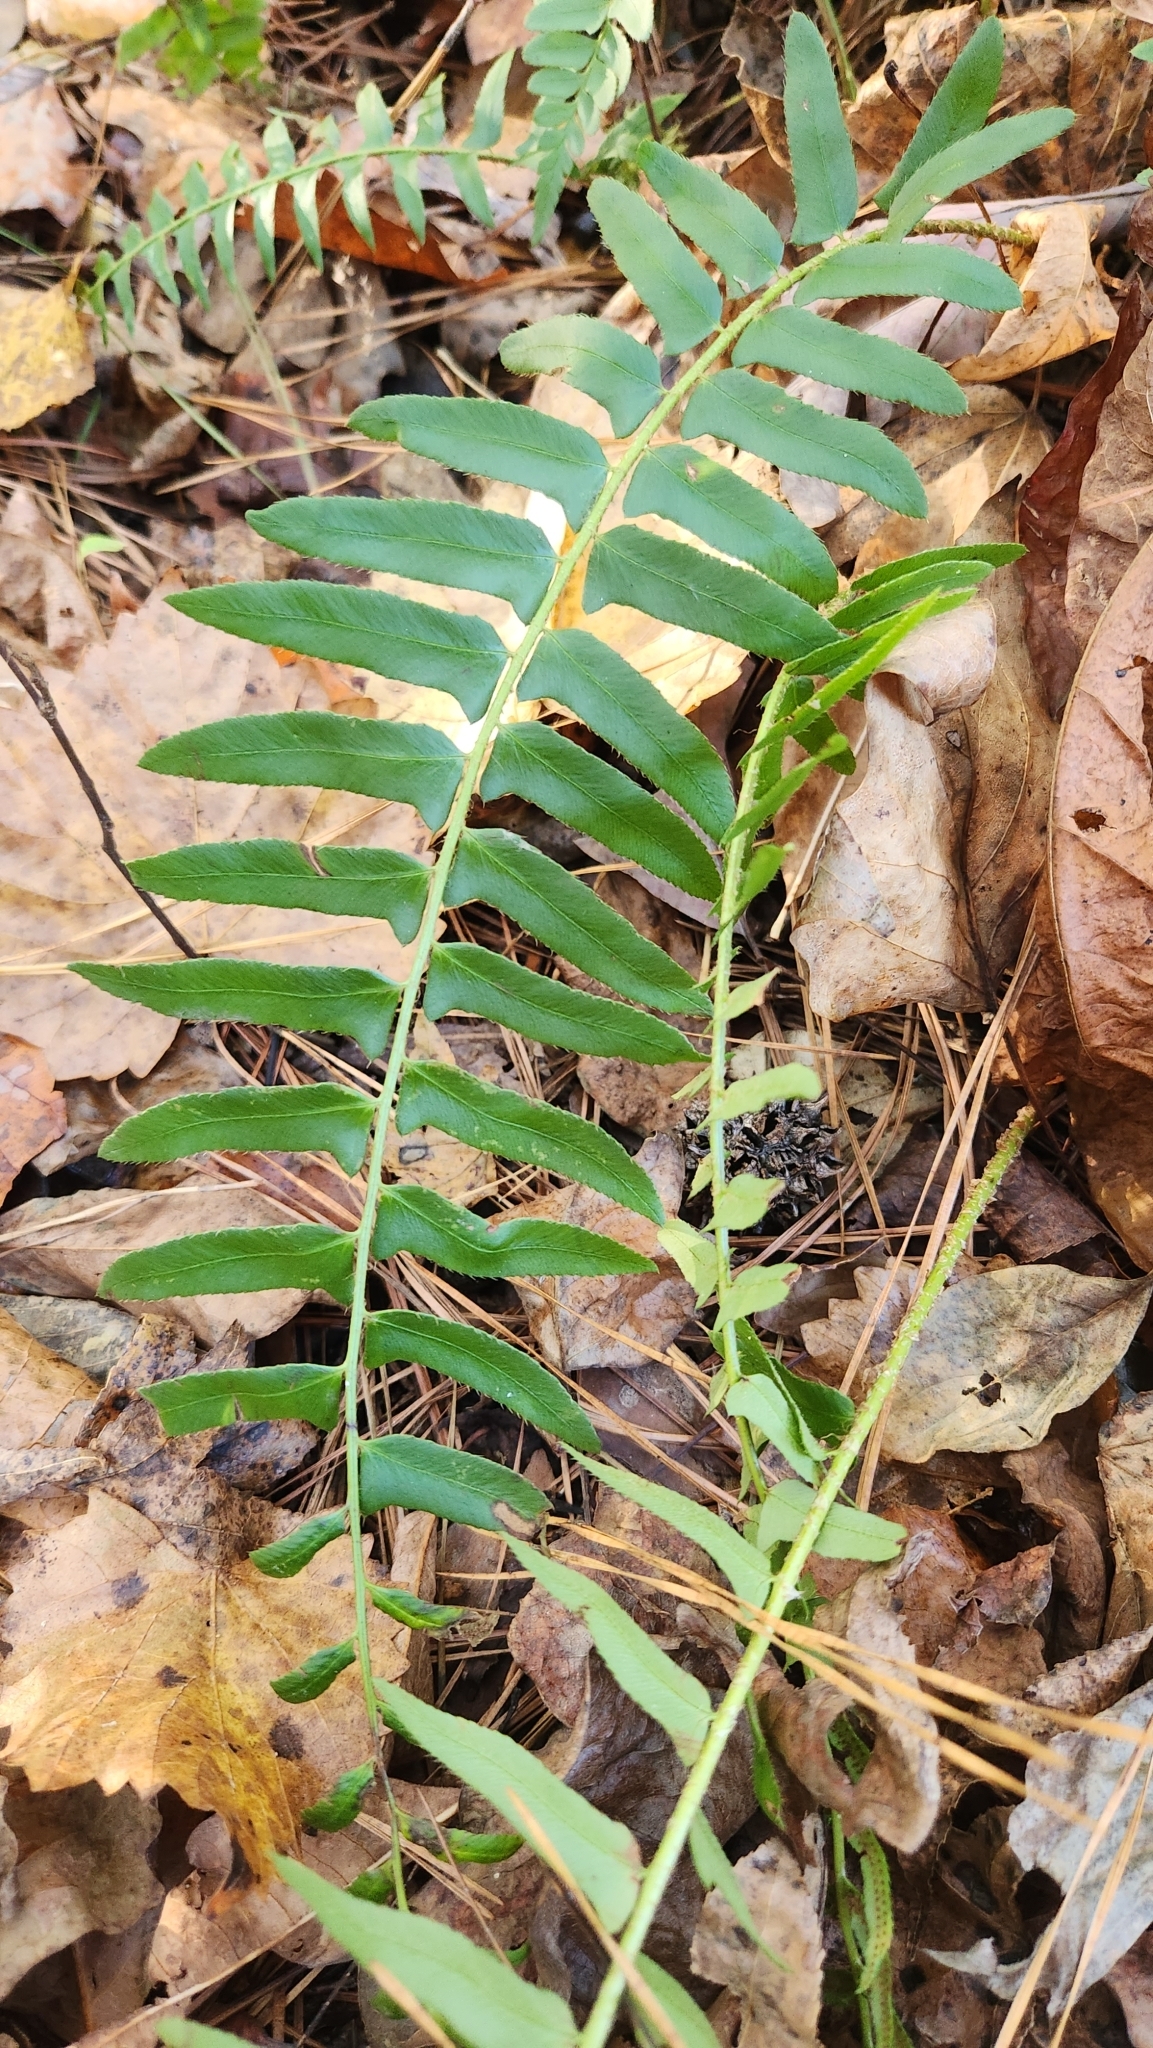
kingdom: Plantae
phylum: Tracheophyta
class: Polypodiopsida
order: Polypodiales
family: Dryopteridaceae
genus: Polystichum
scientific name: Polystichum acrostichoides
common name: Christmas fern
